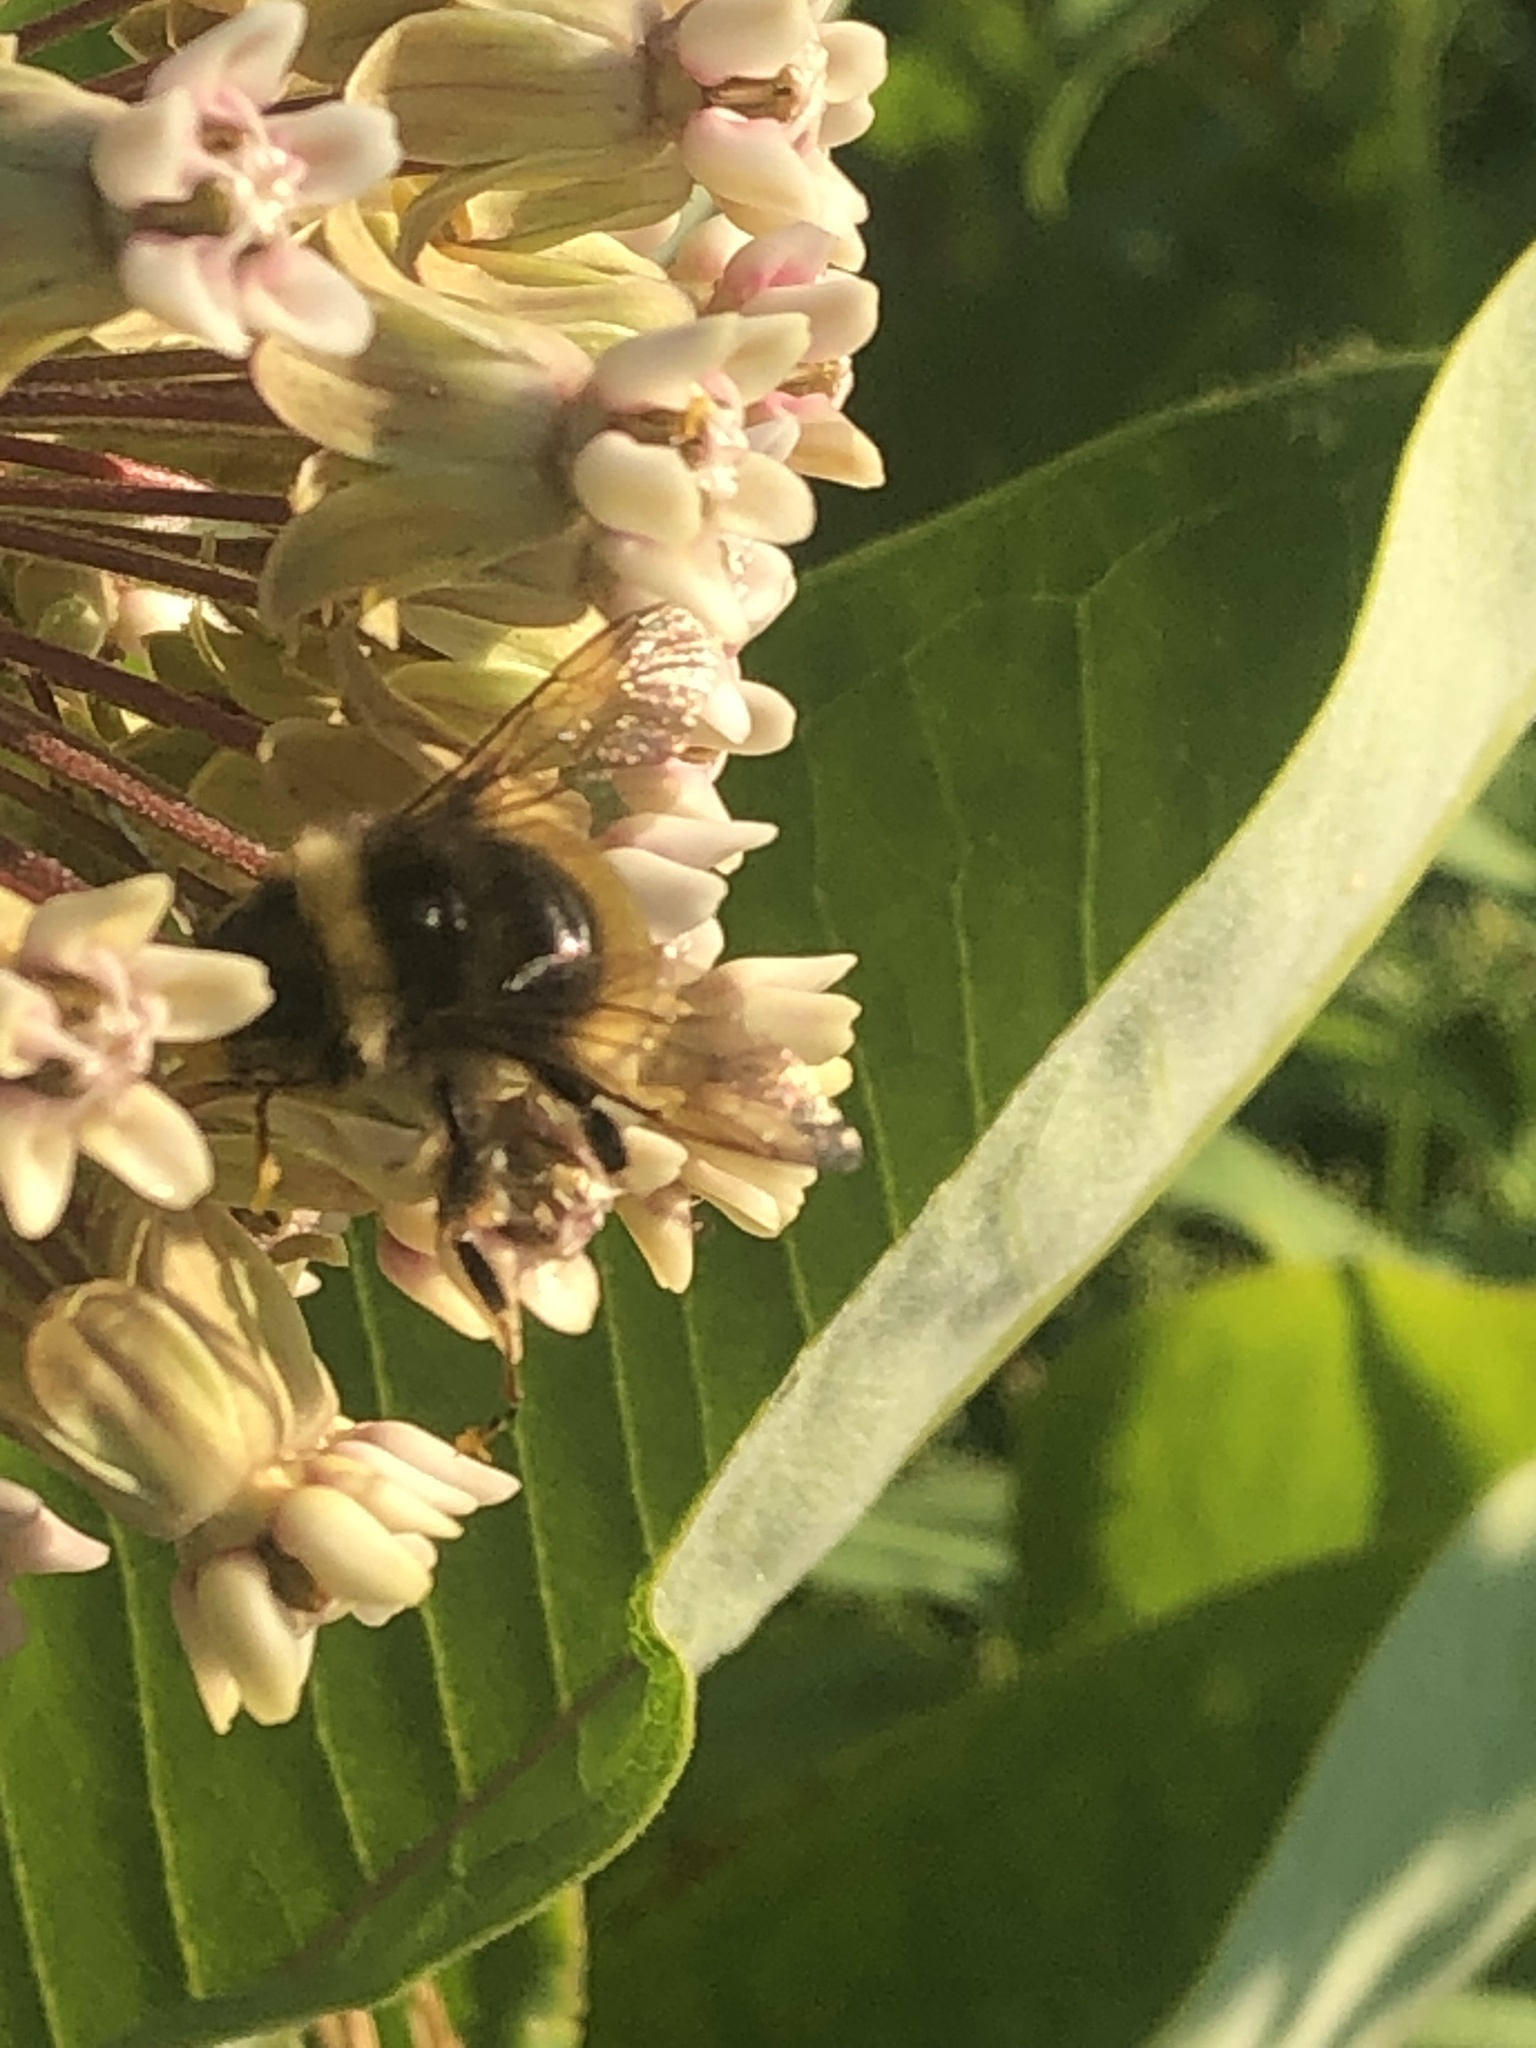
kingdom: Animalia
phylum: Arthropoda
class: Insecta
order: Hymenoptera
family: Apidae
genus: Bombus
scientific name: Bombus terricola
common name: Yellow-banded bumble bee
